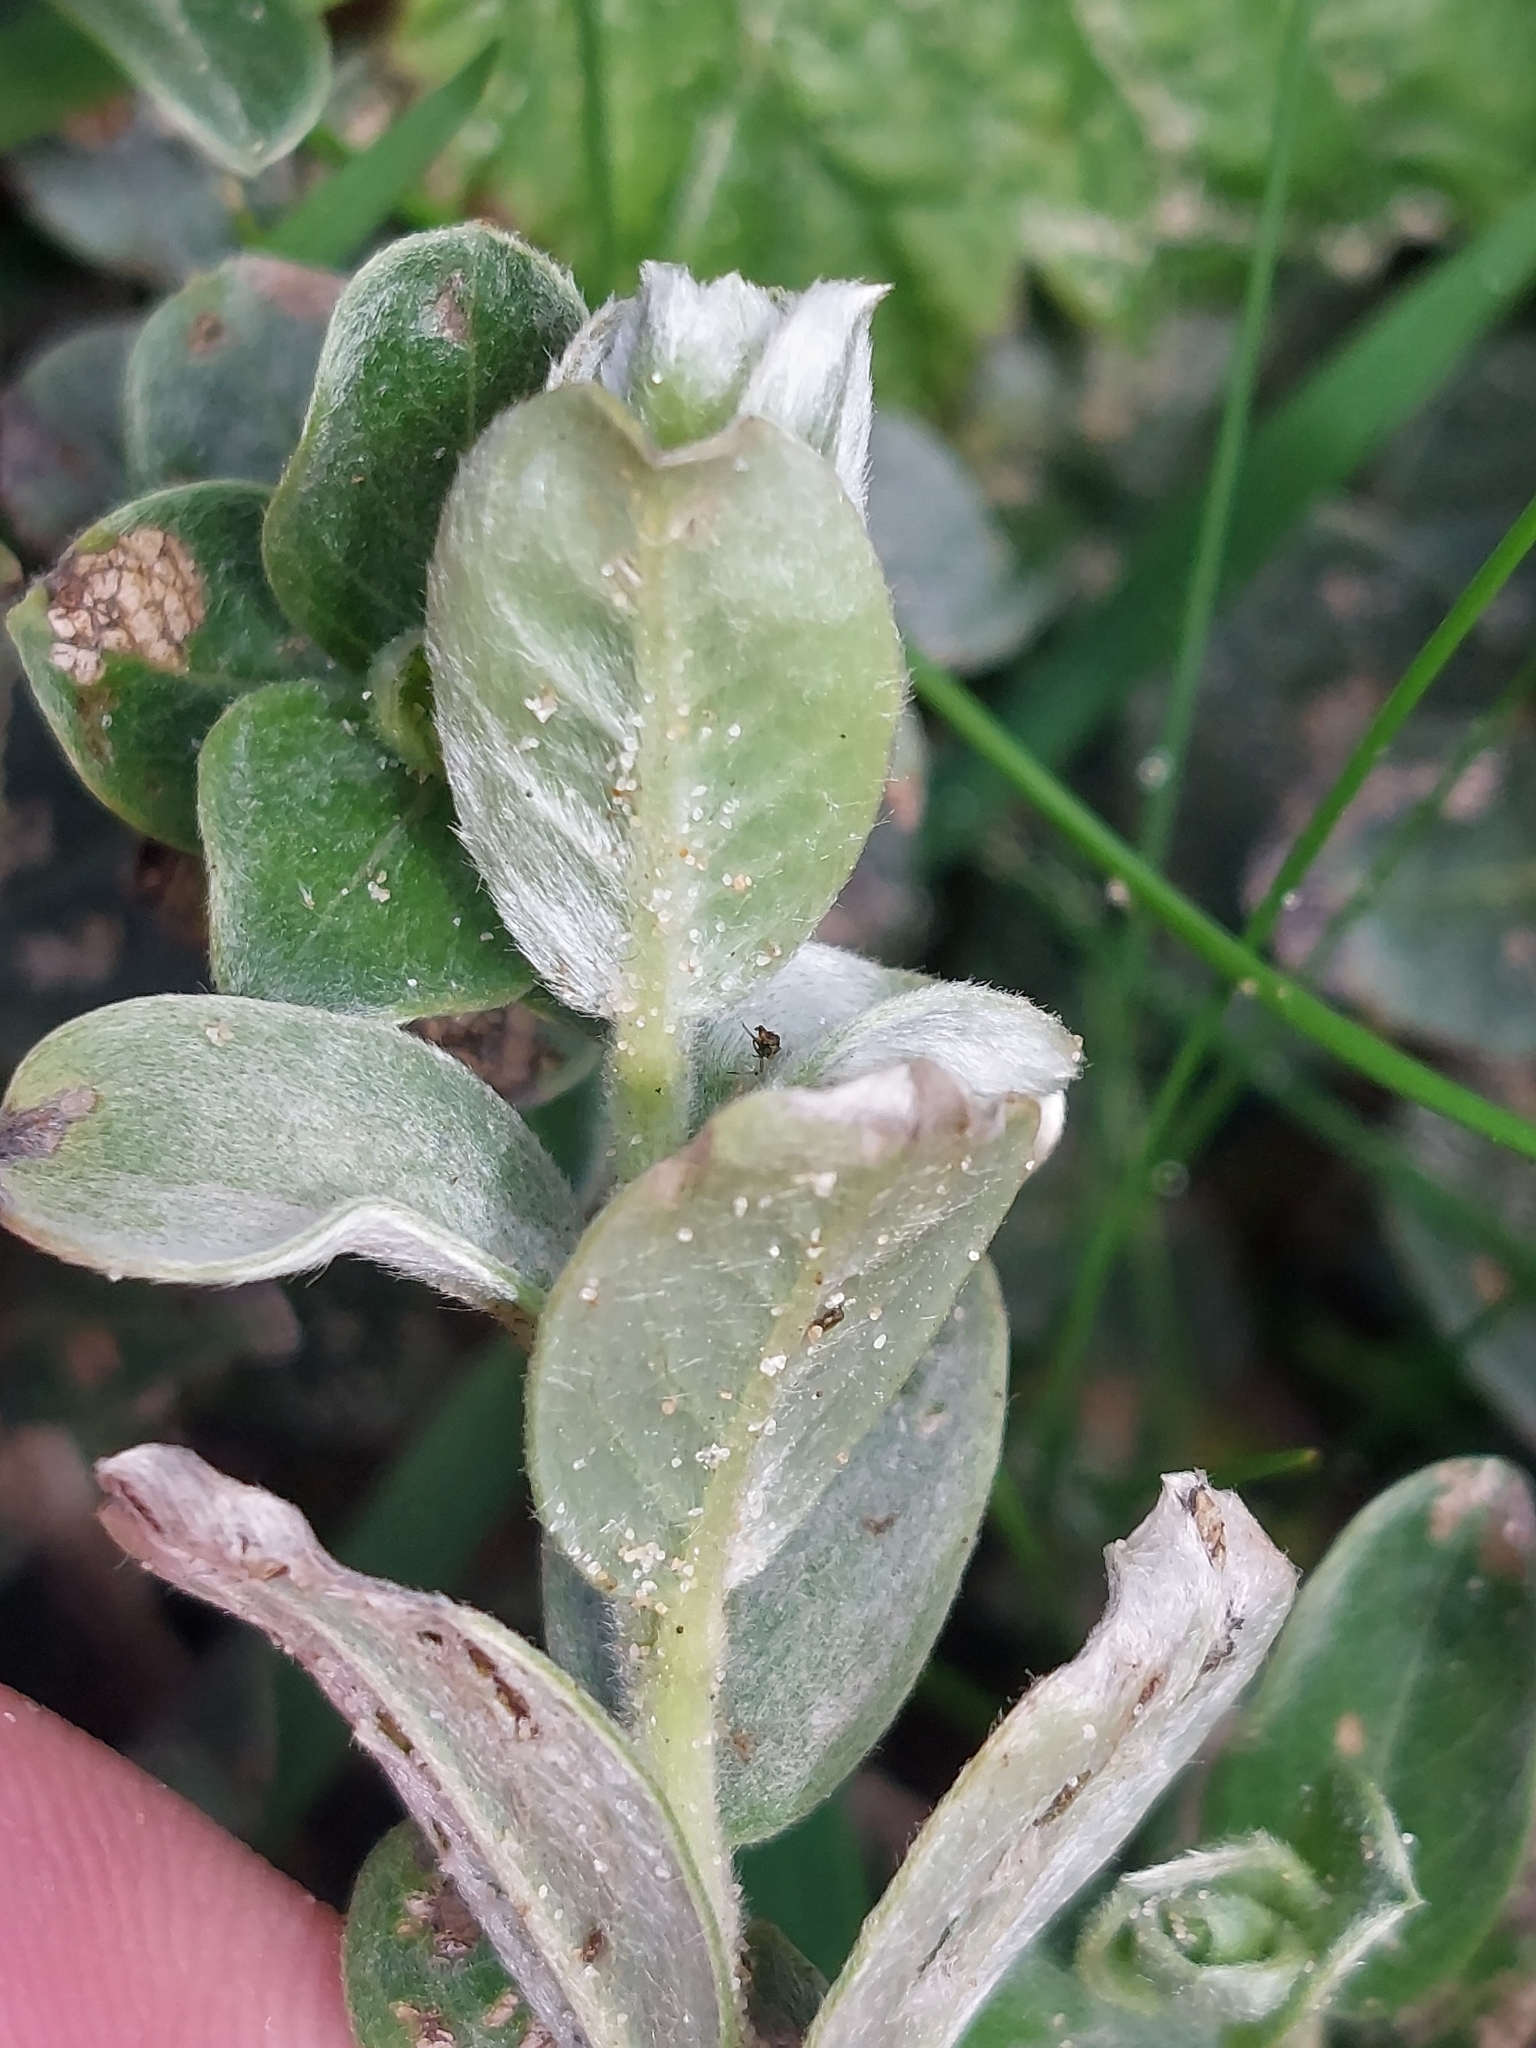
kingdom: Plantae
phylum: Tracheophyta
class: Magnoliopsida
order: Malpighiales
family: Salicaceae
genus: Salix
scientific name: Salix repens
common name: Creeping willow
